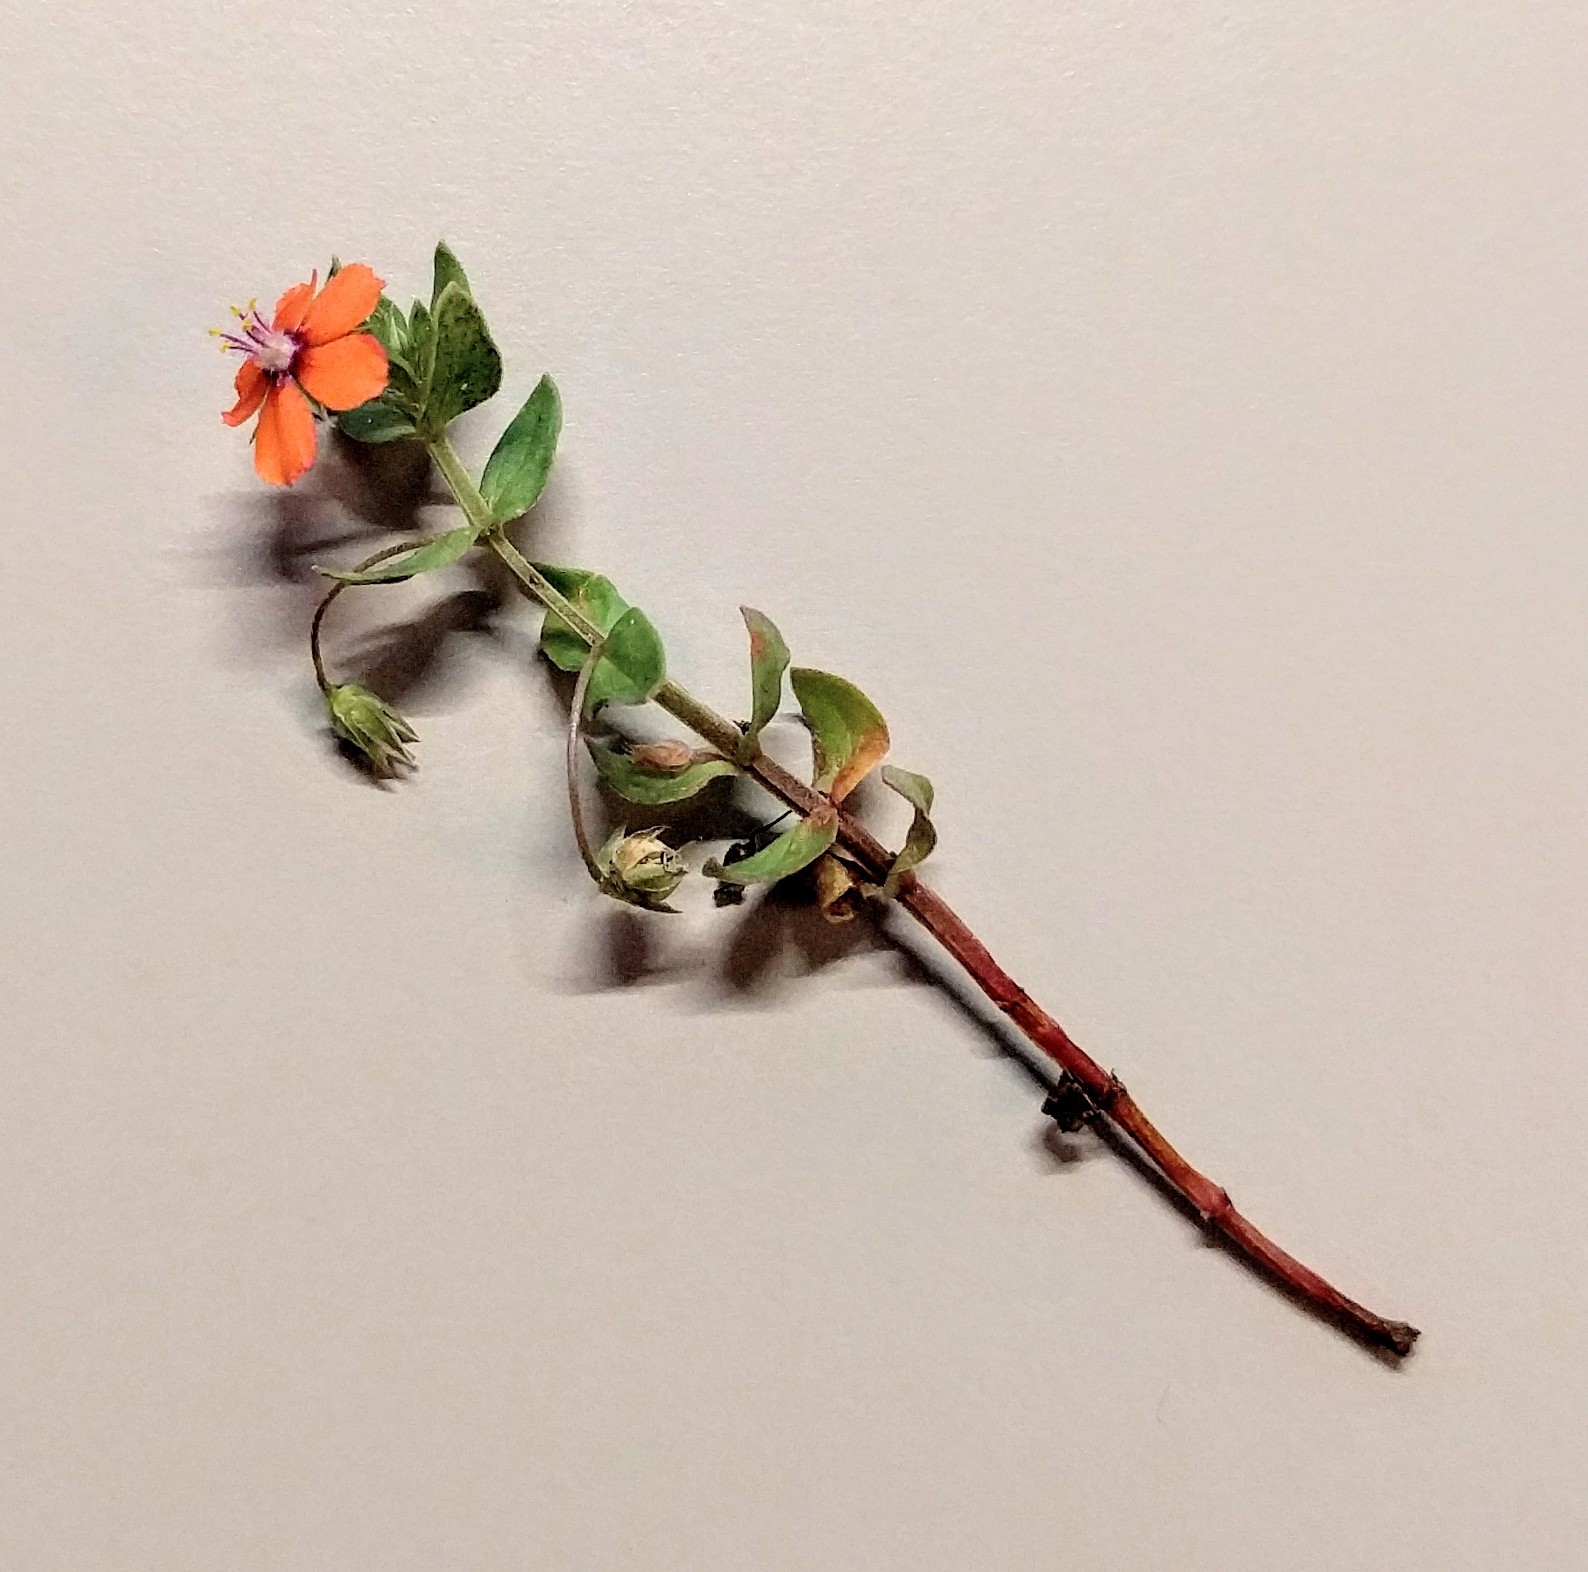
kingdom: Plantae
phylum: Tracheophyta
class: Magnoliopsida
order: Ericales
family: Primulaceae
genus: Lysimachia
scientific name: Lysimachia arvensis
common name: Scarlet pimpernel
